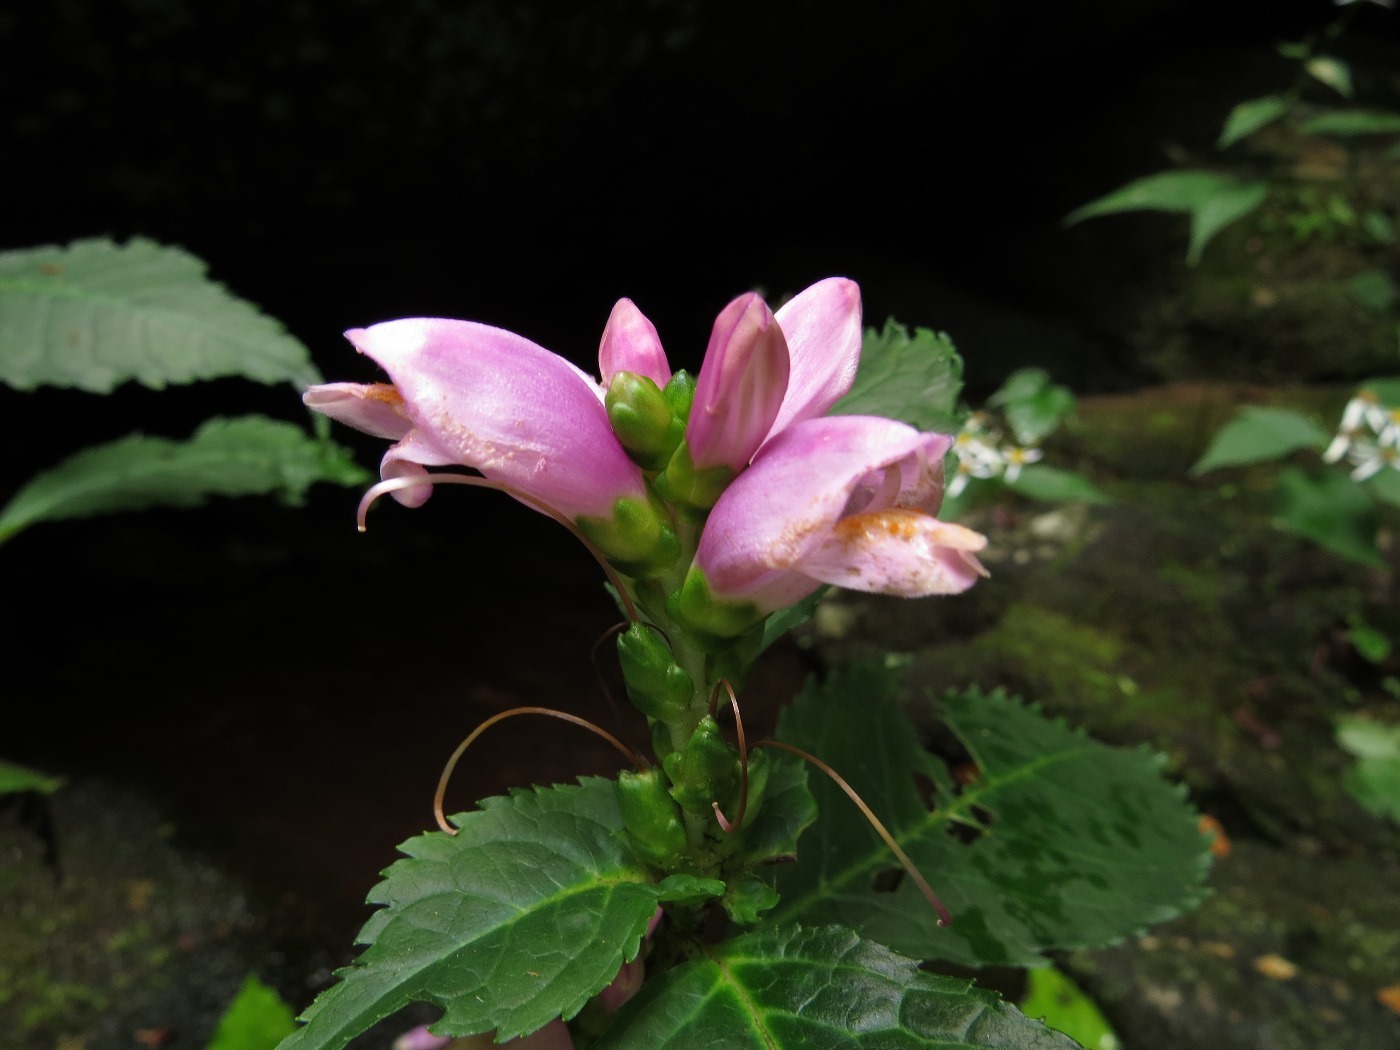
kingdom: Plantae
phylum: Tracheophyta
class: Magnoliopsida
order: Lamiales
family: Plantaginaceae
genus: Chelone
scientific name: Chelone lyonii
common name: Pink turtlehead
